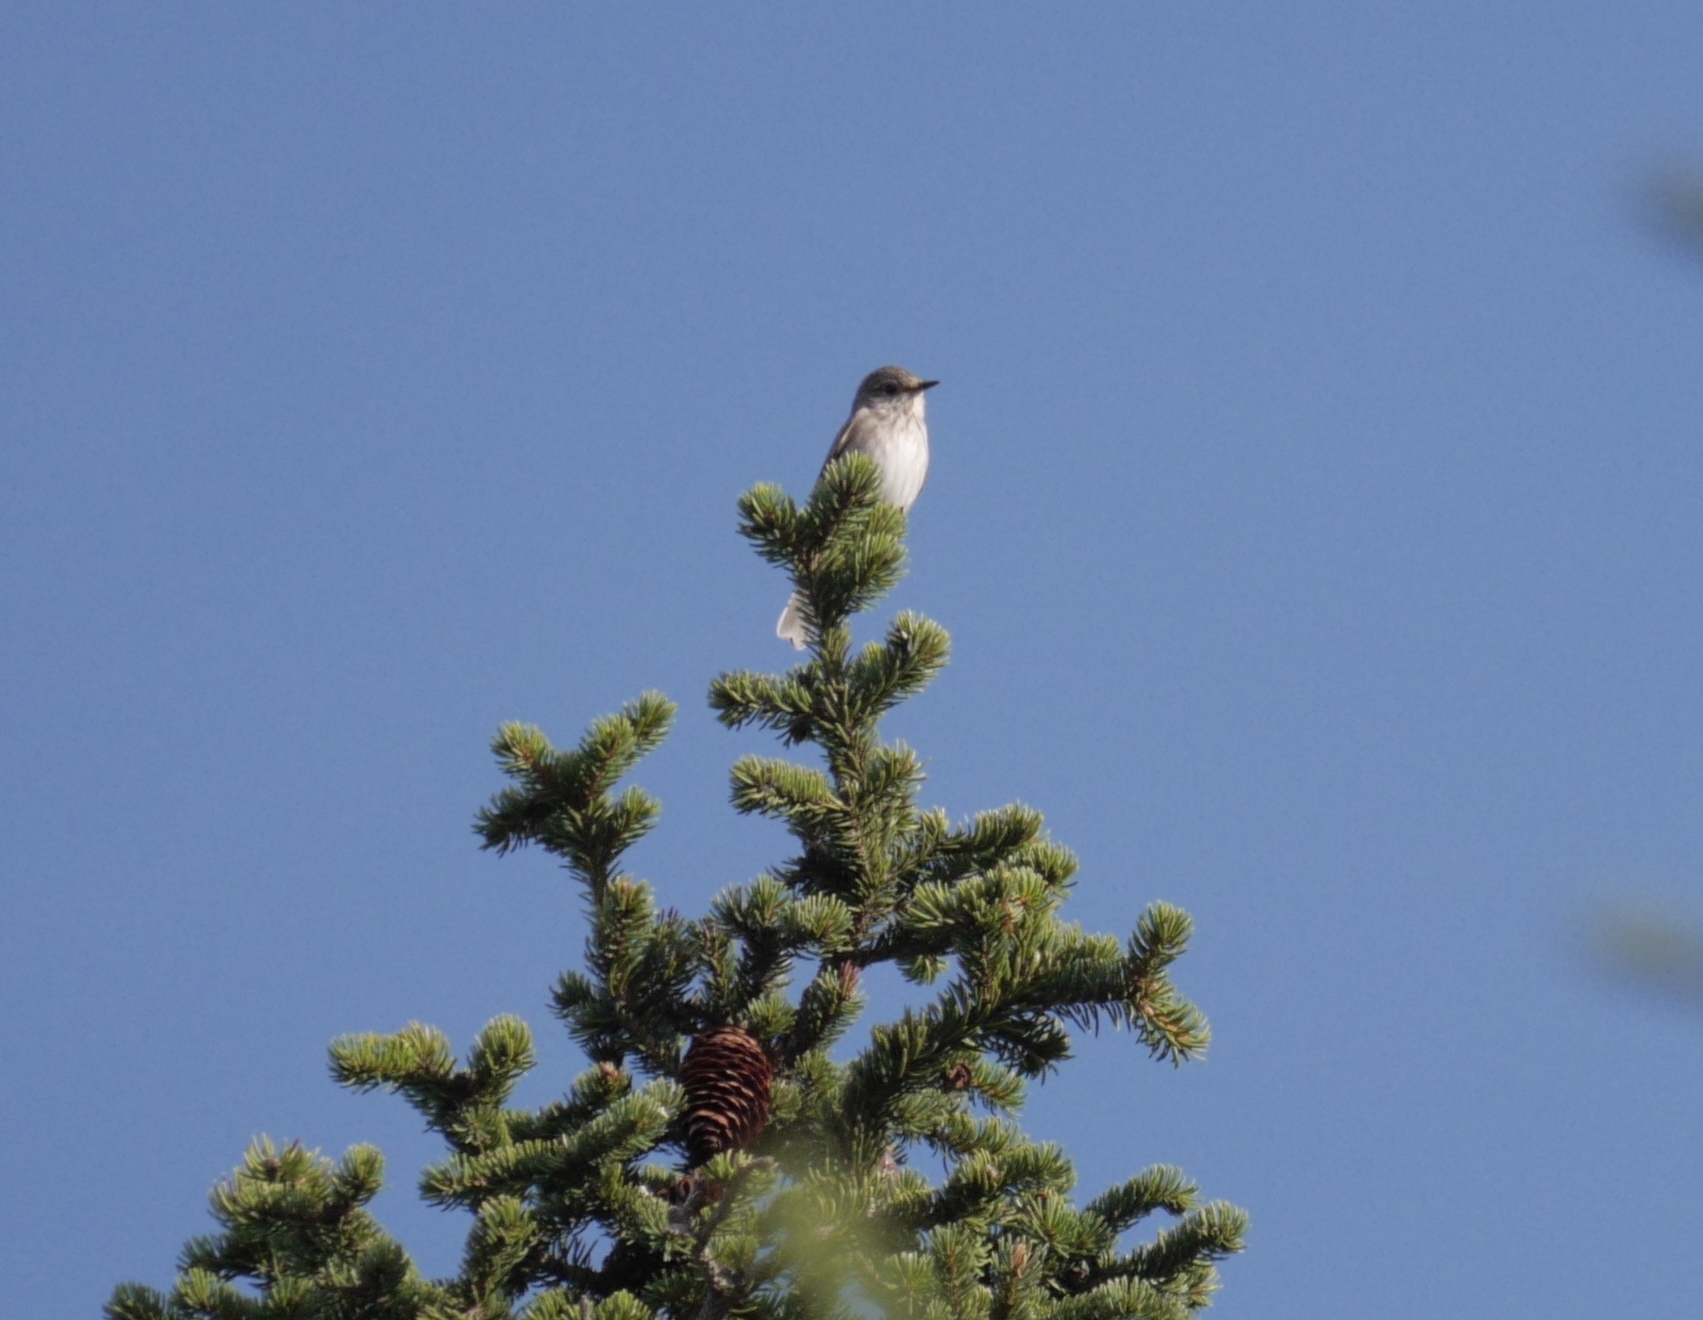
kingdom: Animalia
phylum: Chordata
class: Aves
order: Passeriformes
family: Muscicapidae
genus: Muscicapa
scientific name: Muscicapa striata
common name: Spotted flycatcher
